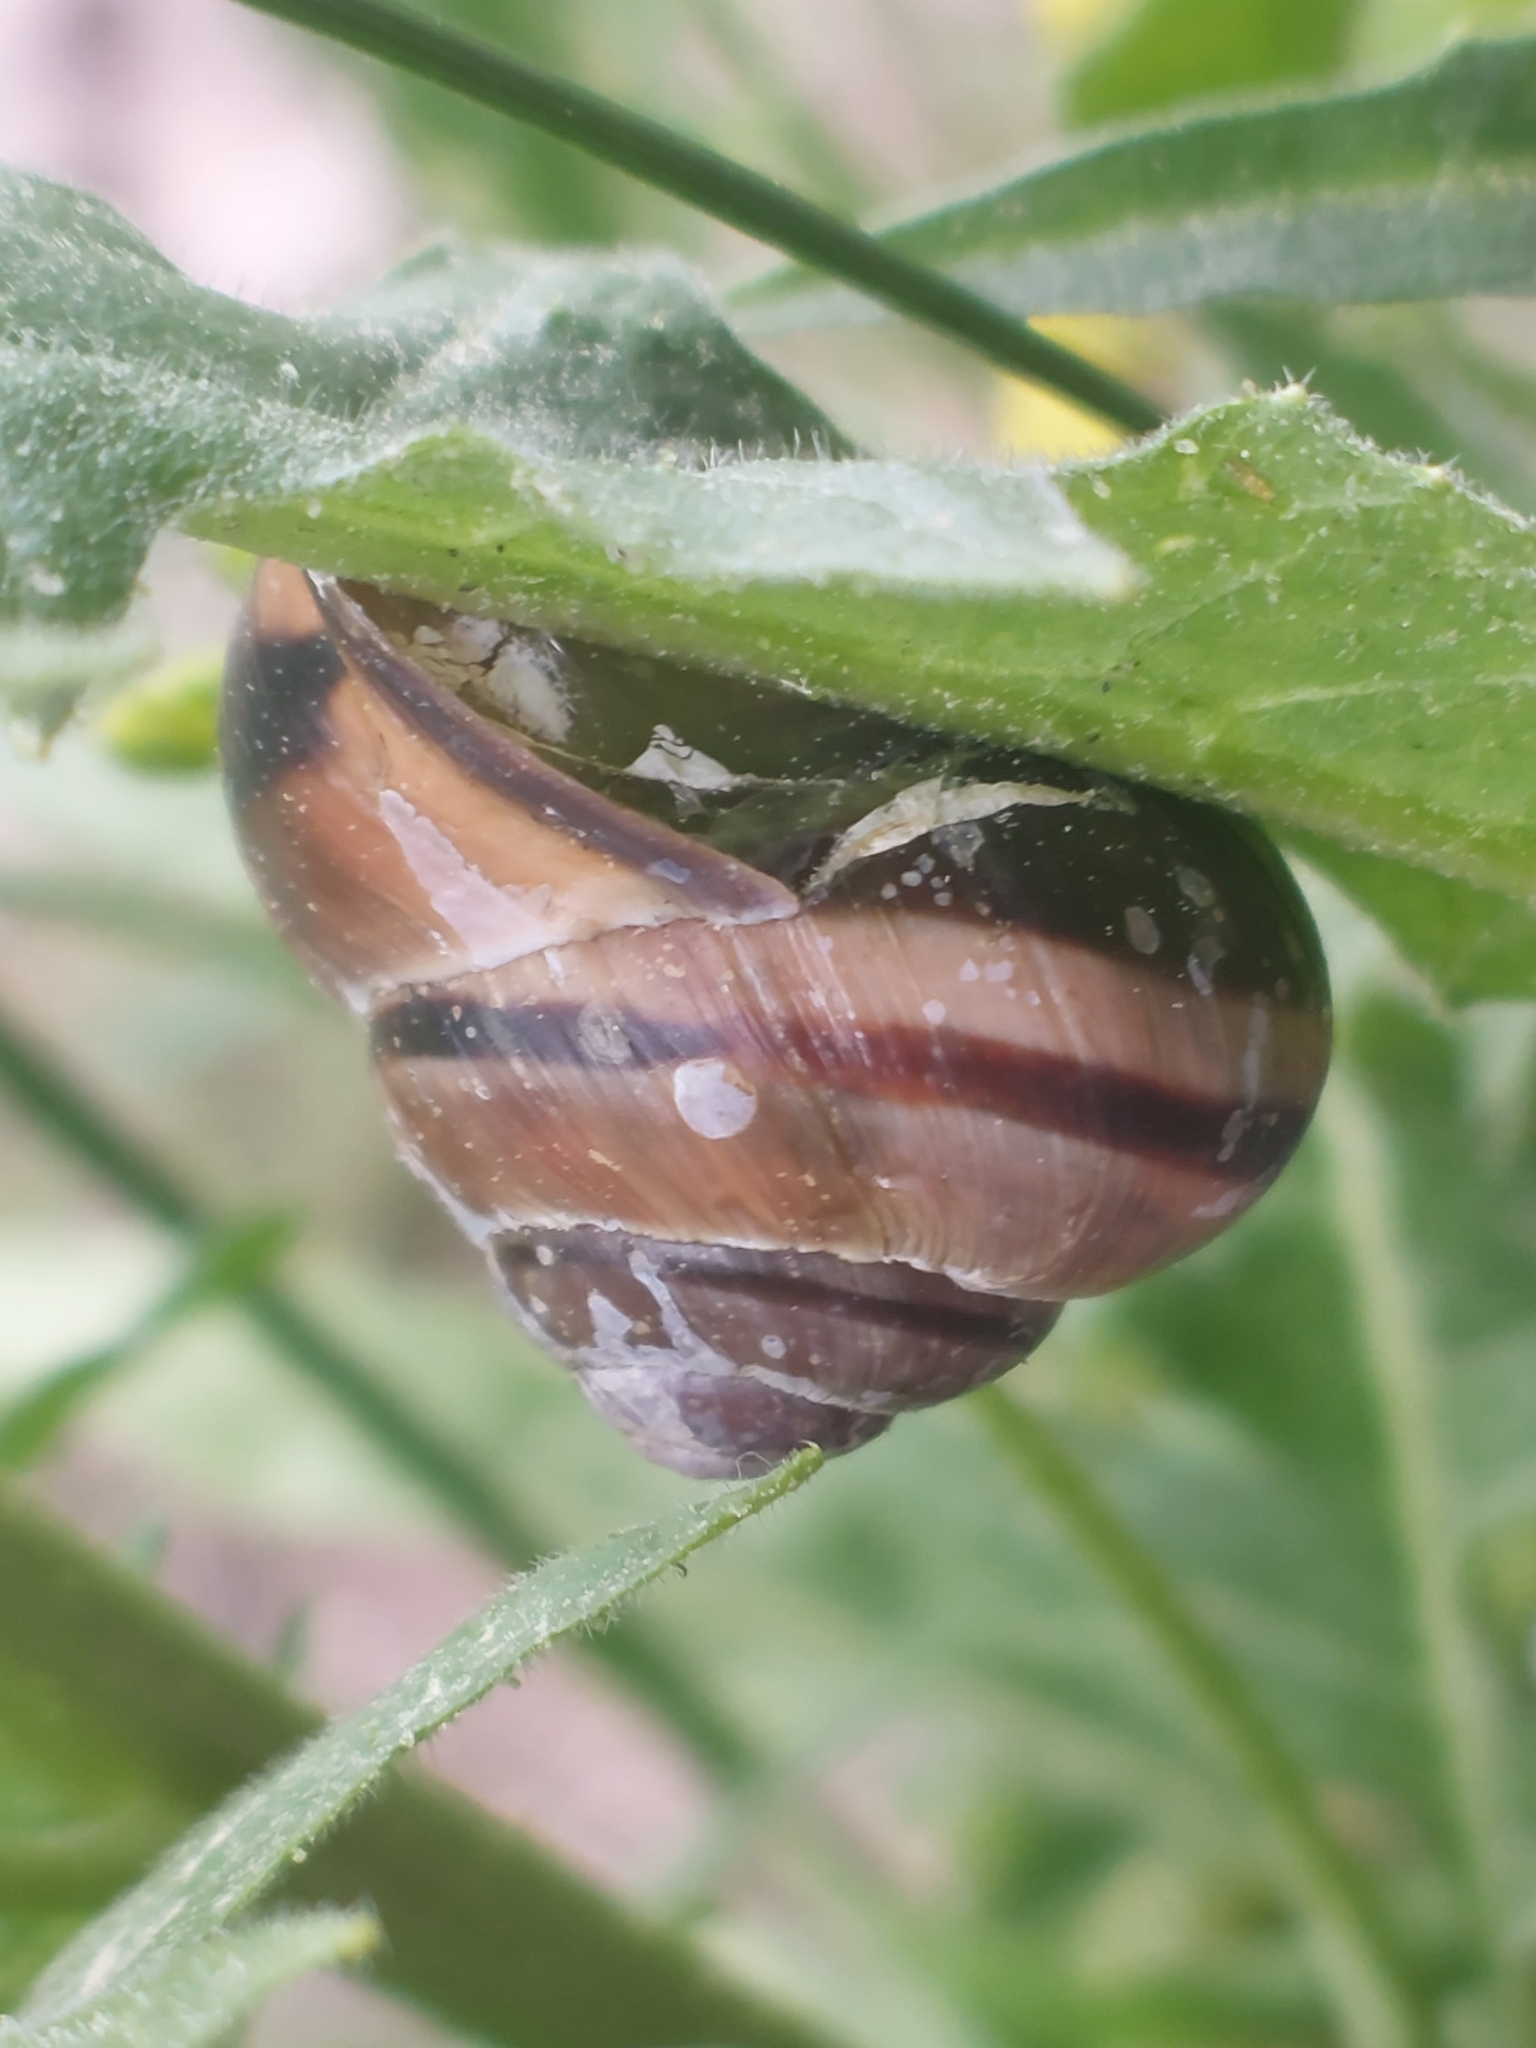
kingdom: Animalia
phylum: Mollusca
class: Gastropoda
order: Stylommatophora
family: Helicidae
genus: Cepaea
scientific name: Cepaea nemoralis
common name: Grovesnail
